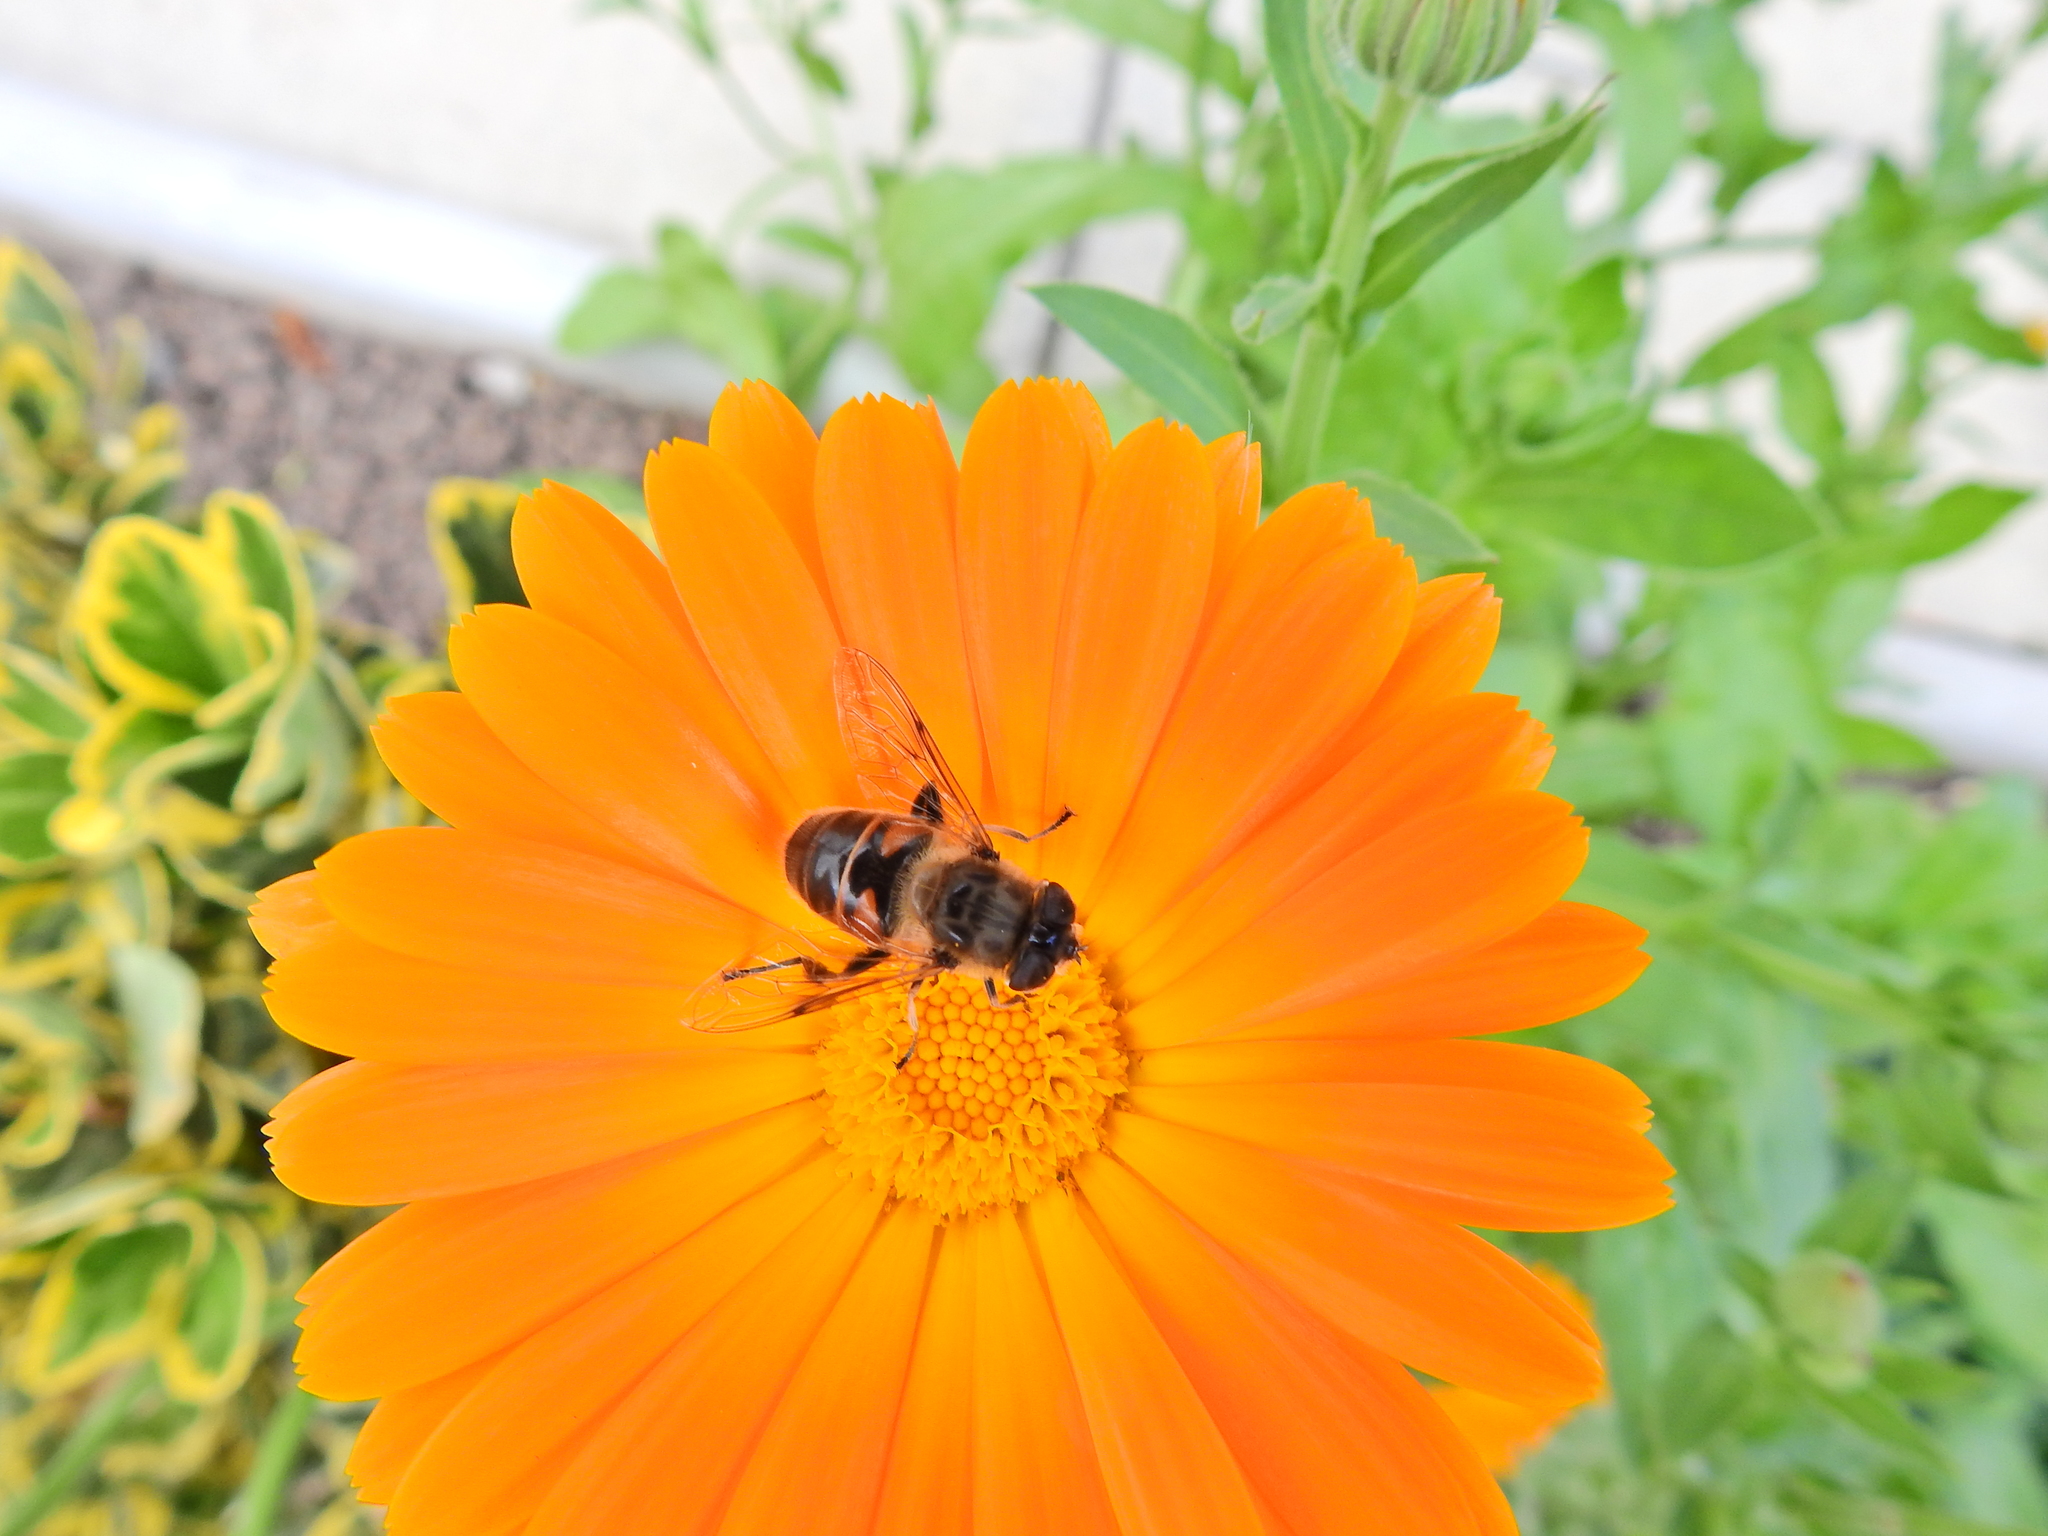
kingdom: Animalia
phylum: Arthropoda
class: Insecta
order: Diptera
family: Syrphidae
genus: Eristalis
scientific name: Eristalis tenax
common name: Drone fly
